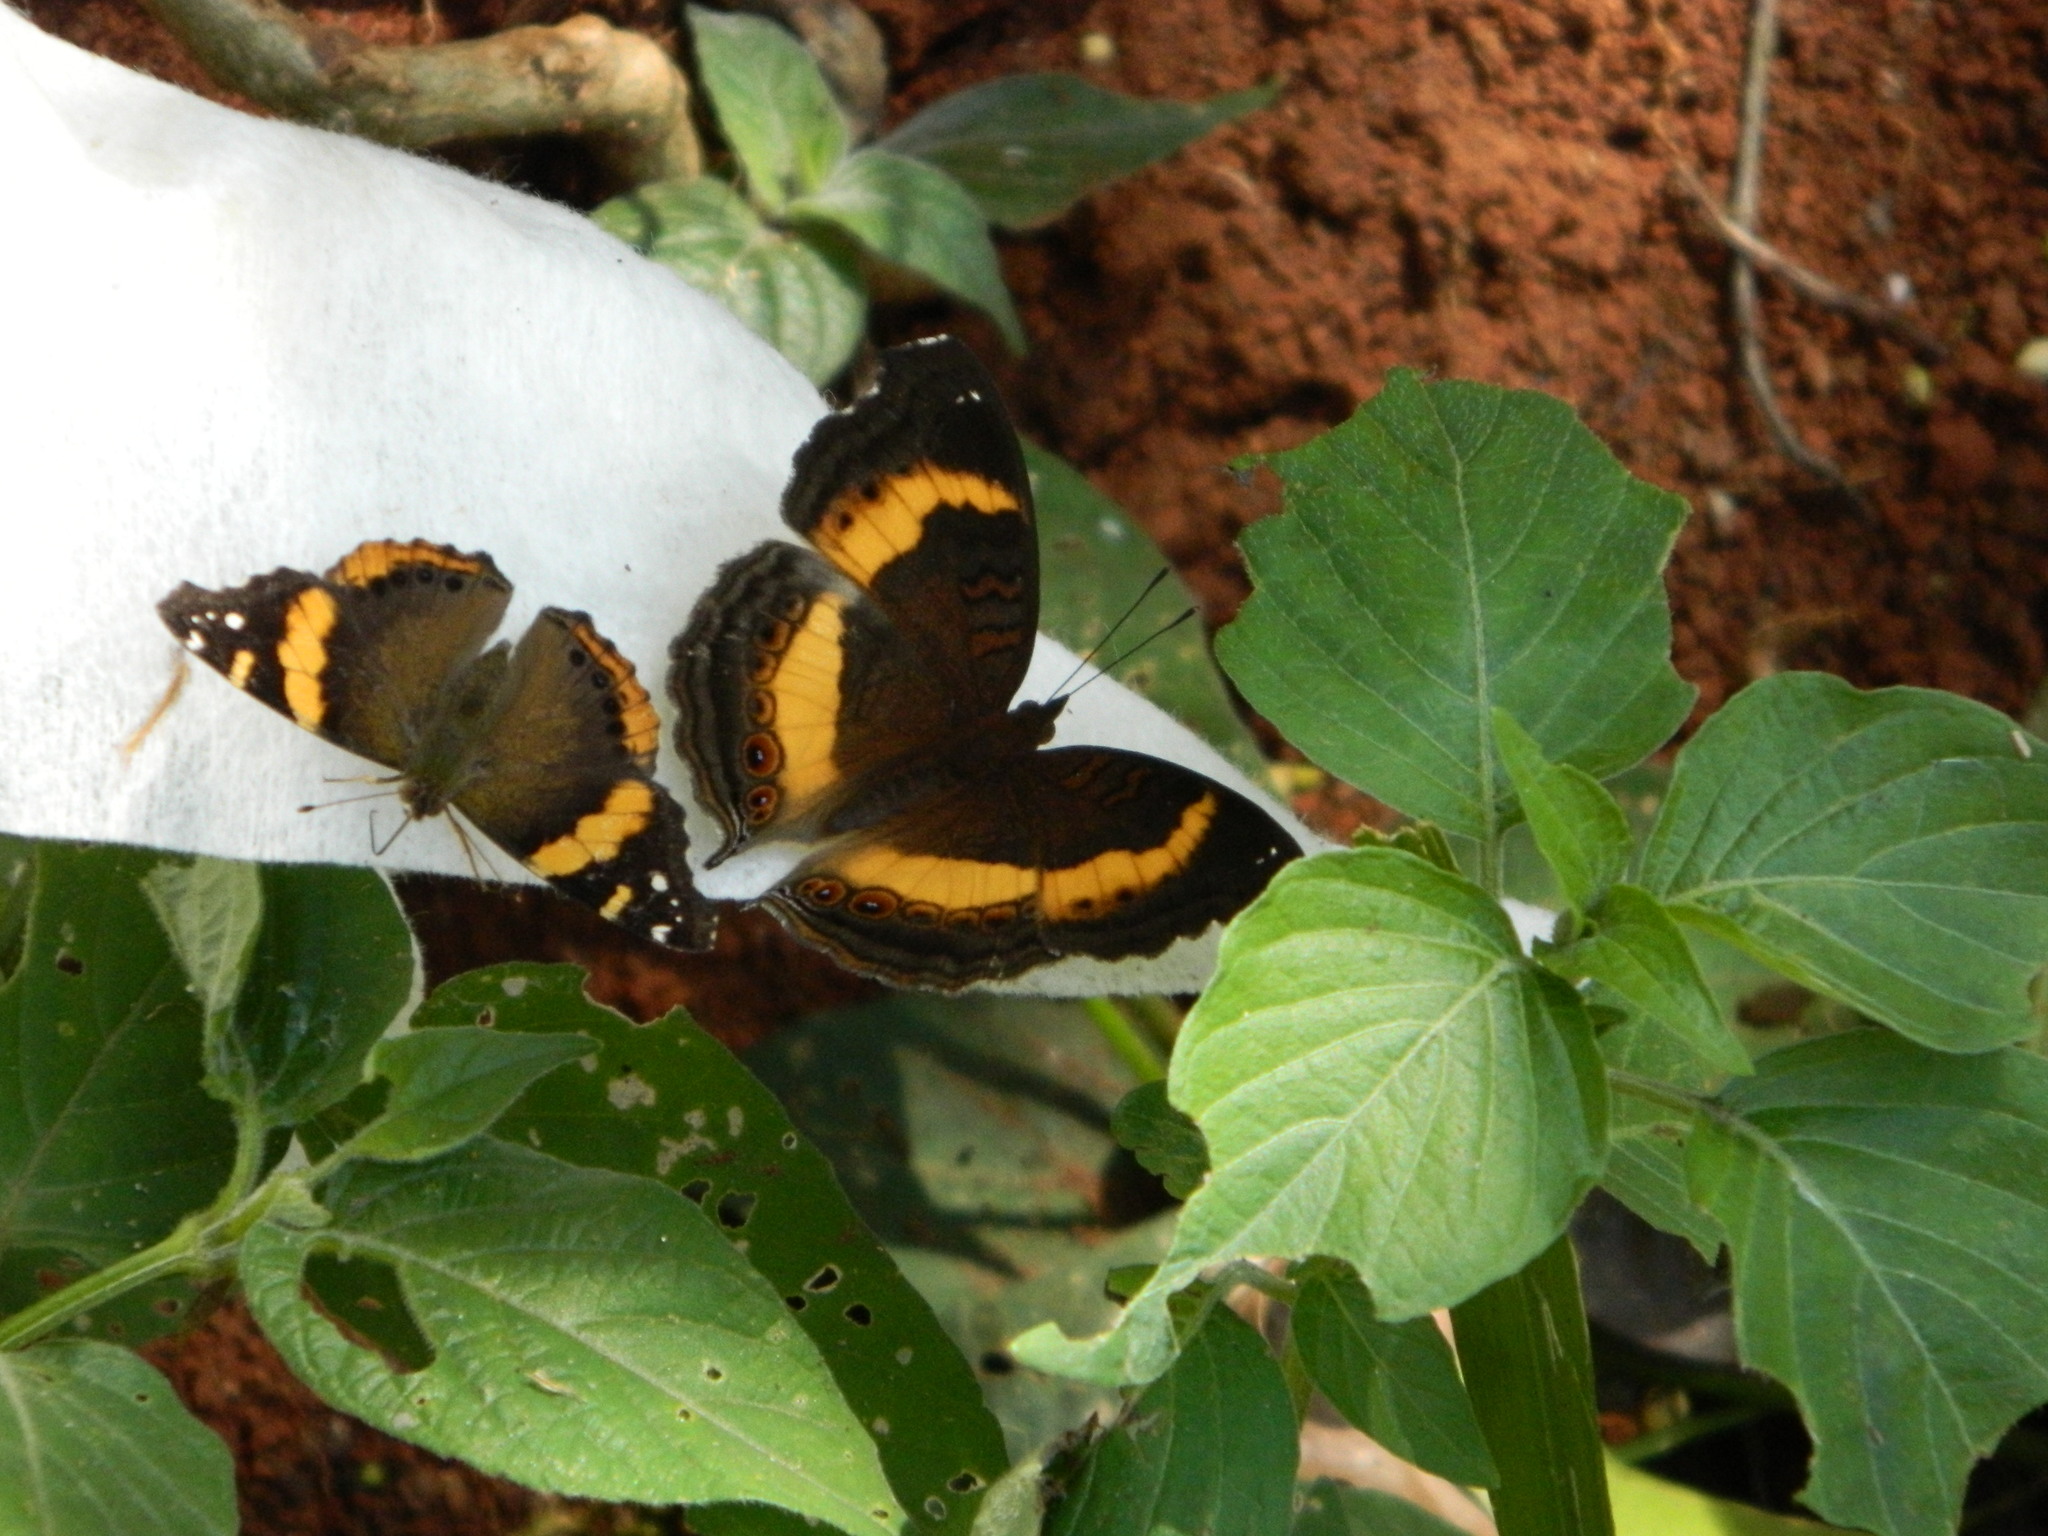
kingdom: Animalia
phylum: Arthropoda
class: Insecta
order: Lepidoptera
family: Nymphalidae
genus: Junonia
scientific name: Junonia terea
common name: Soldier pansy
